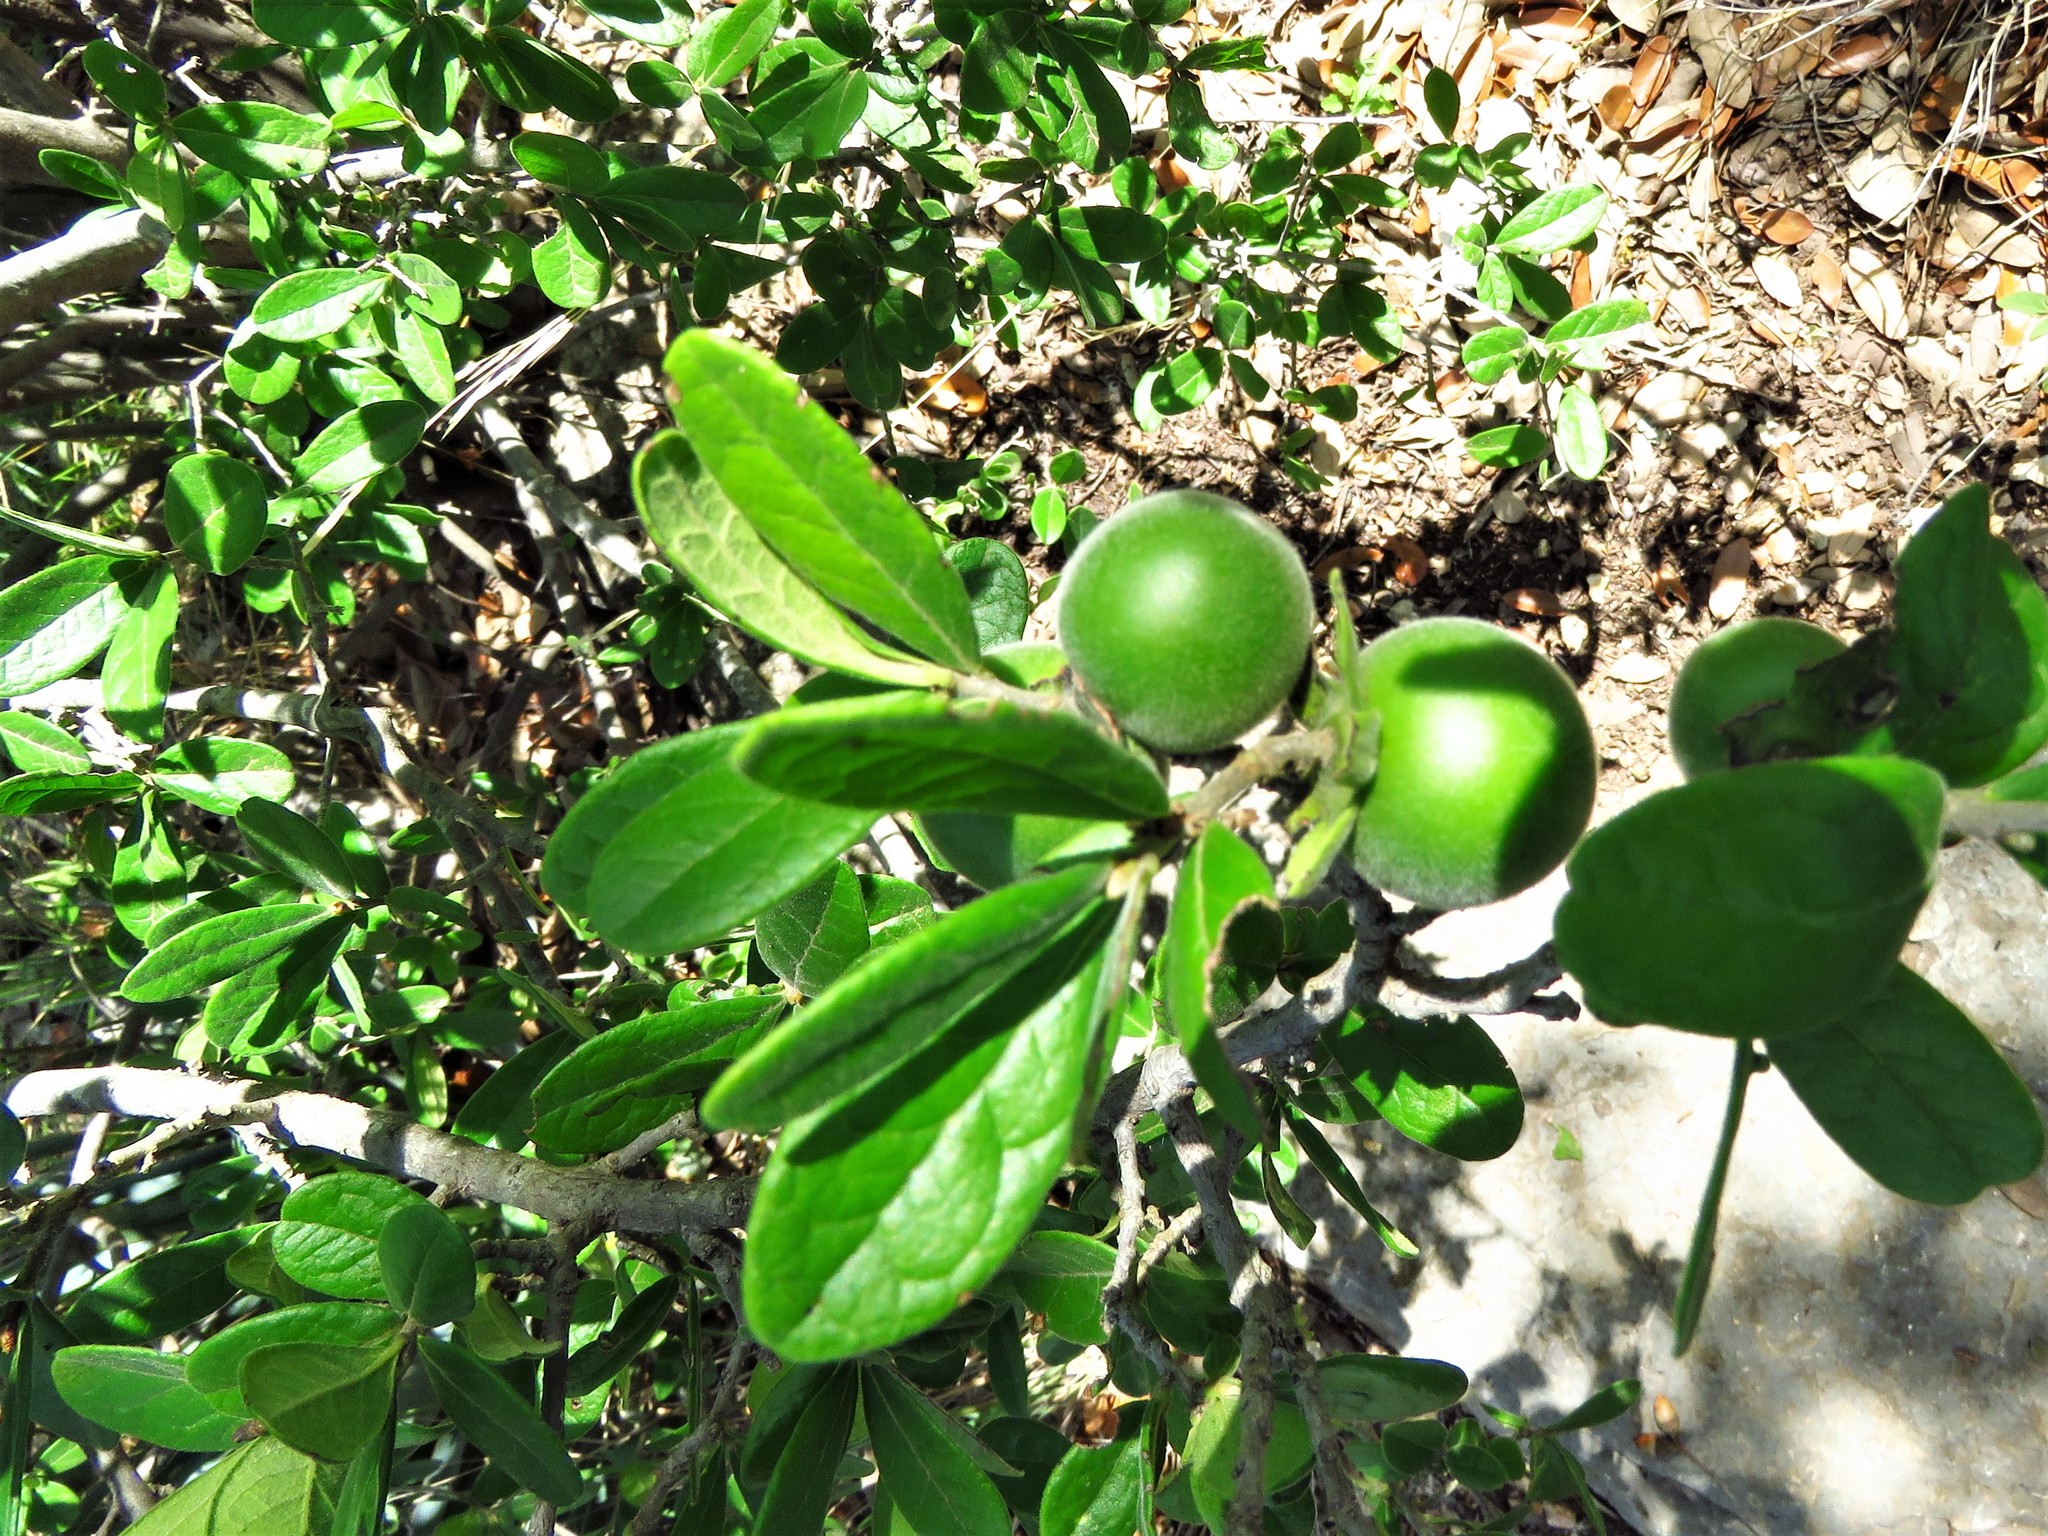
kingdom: Plantae
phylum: Tracheophyta
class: Magnoliopsida
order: Ericales
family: Ebenaceae
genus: Diospyros
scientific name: Diospyros texana
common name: Texas persimmon
